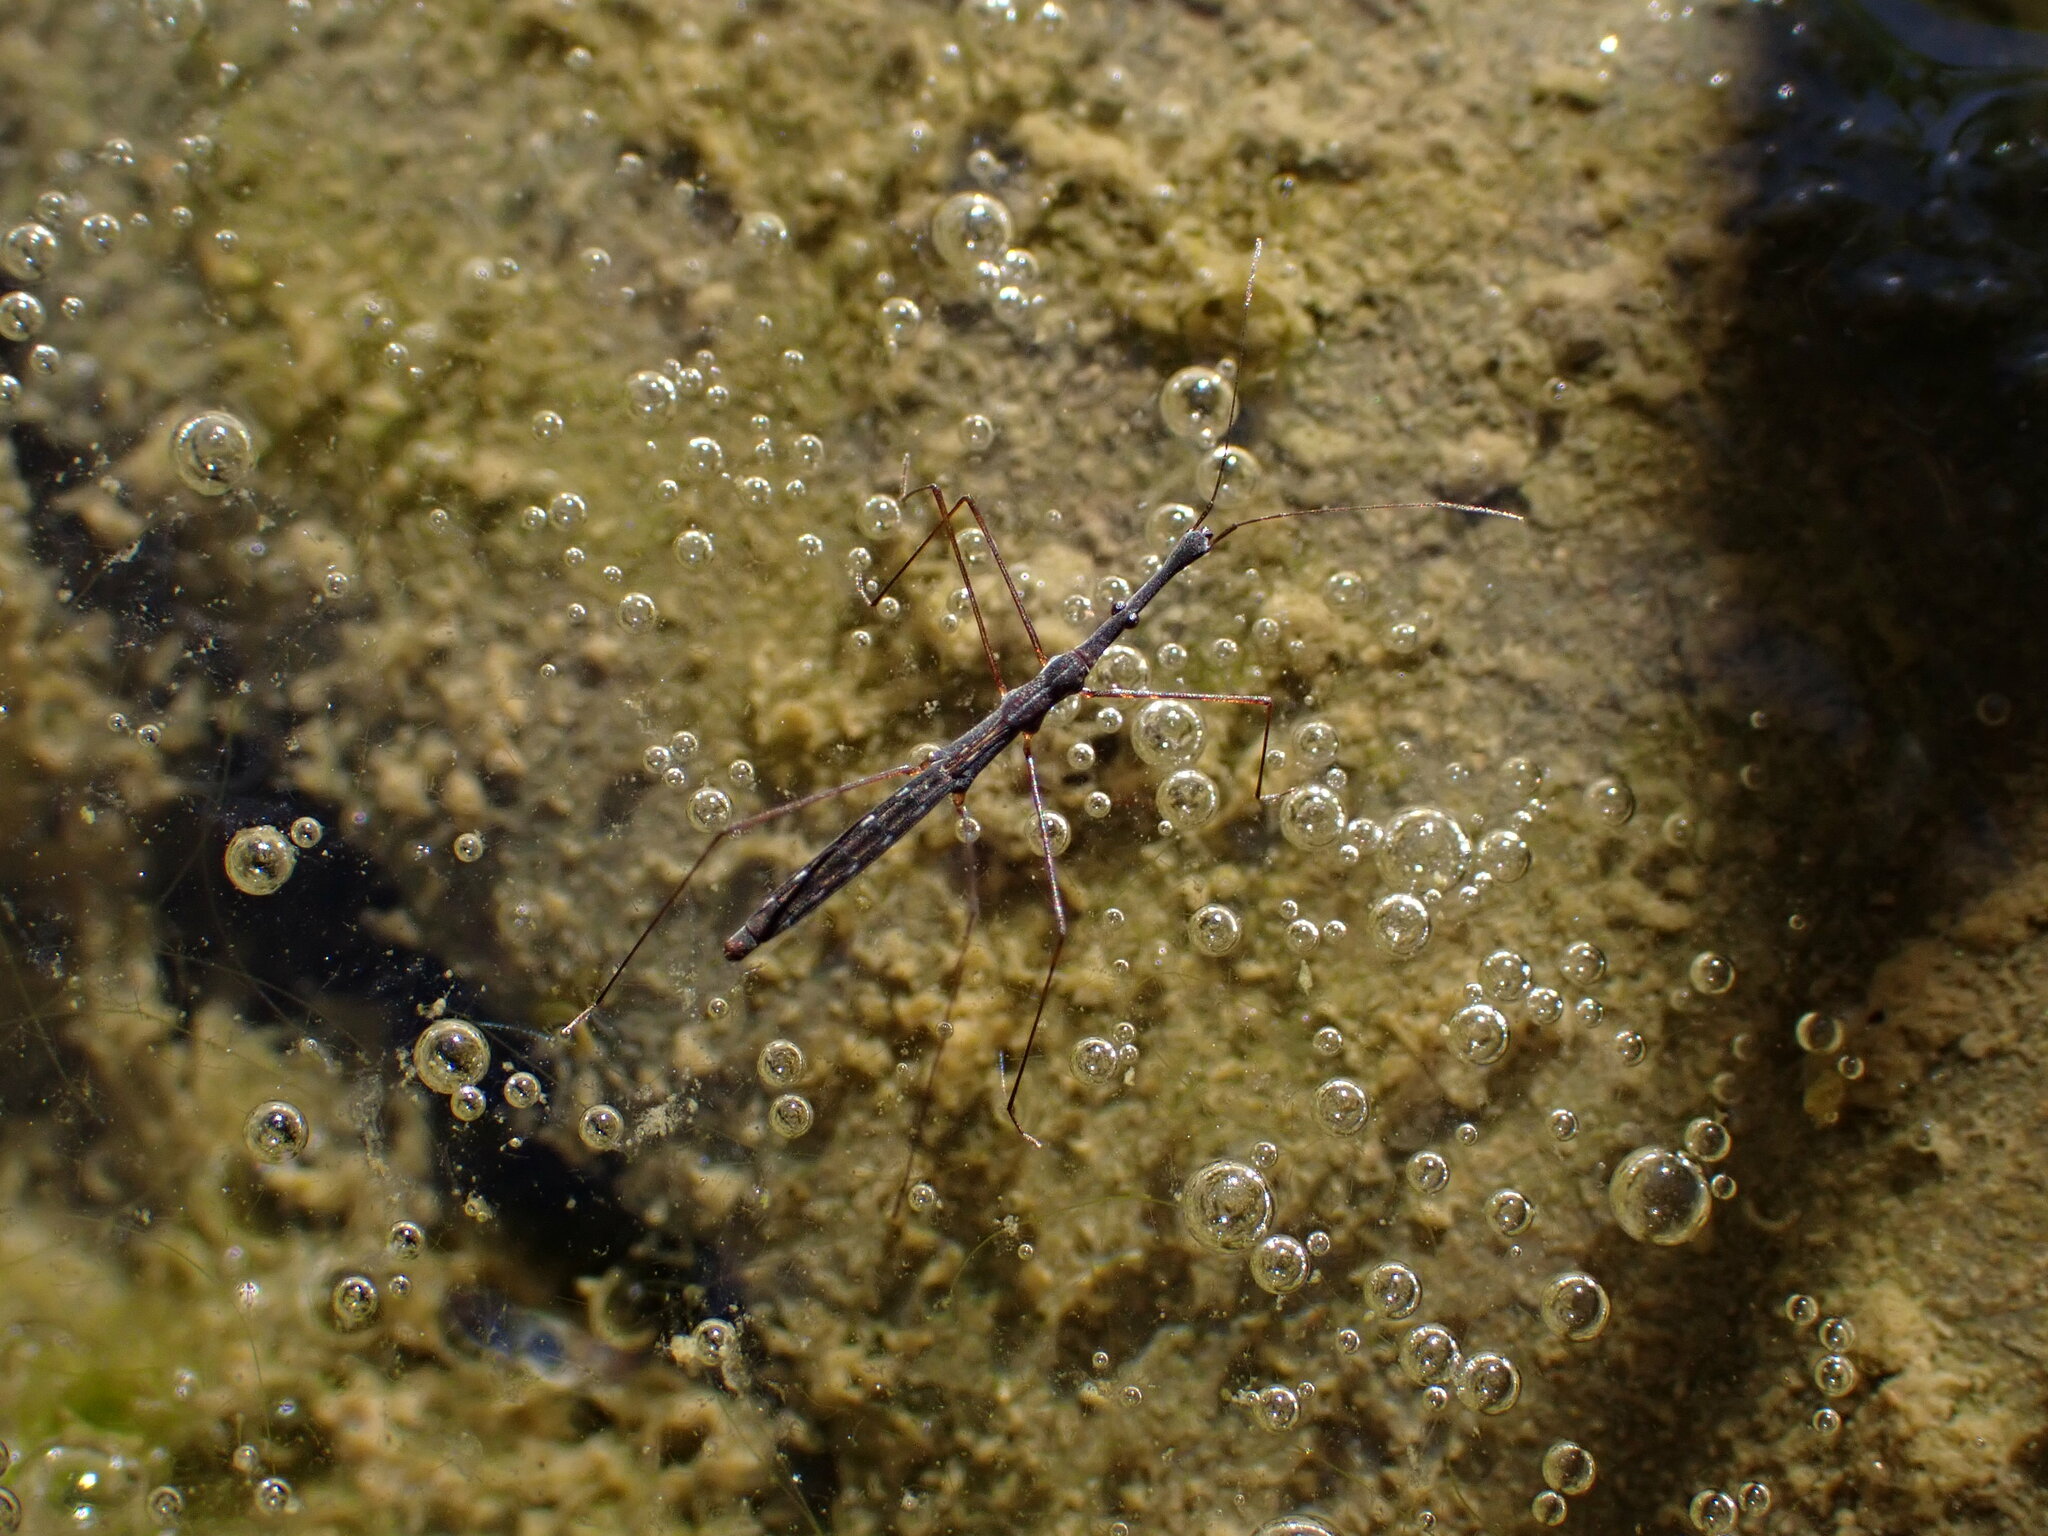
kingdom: Animalia
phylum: Arthropoda
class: Insecta
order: Hemiptera
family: Hydrometridae
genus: Hydrometra
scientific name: Hydrometra stagnorum
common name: Water measurer
